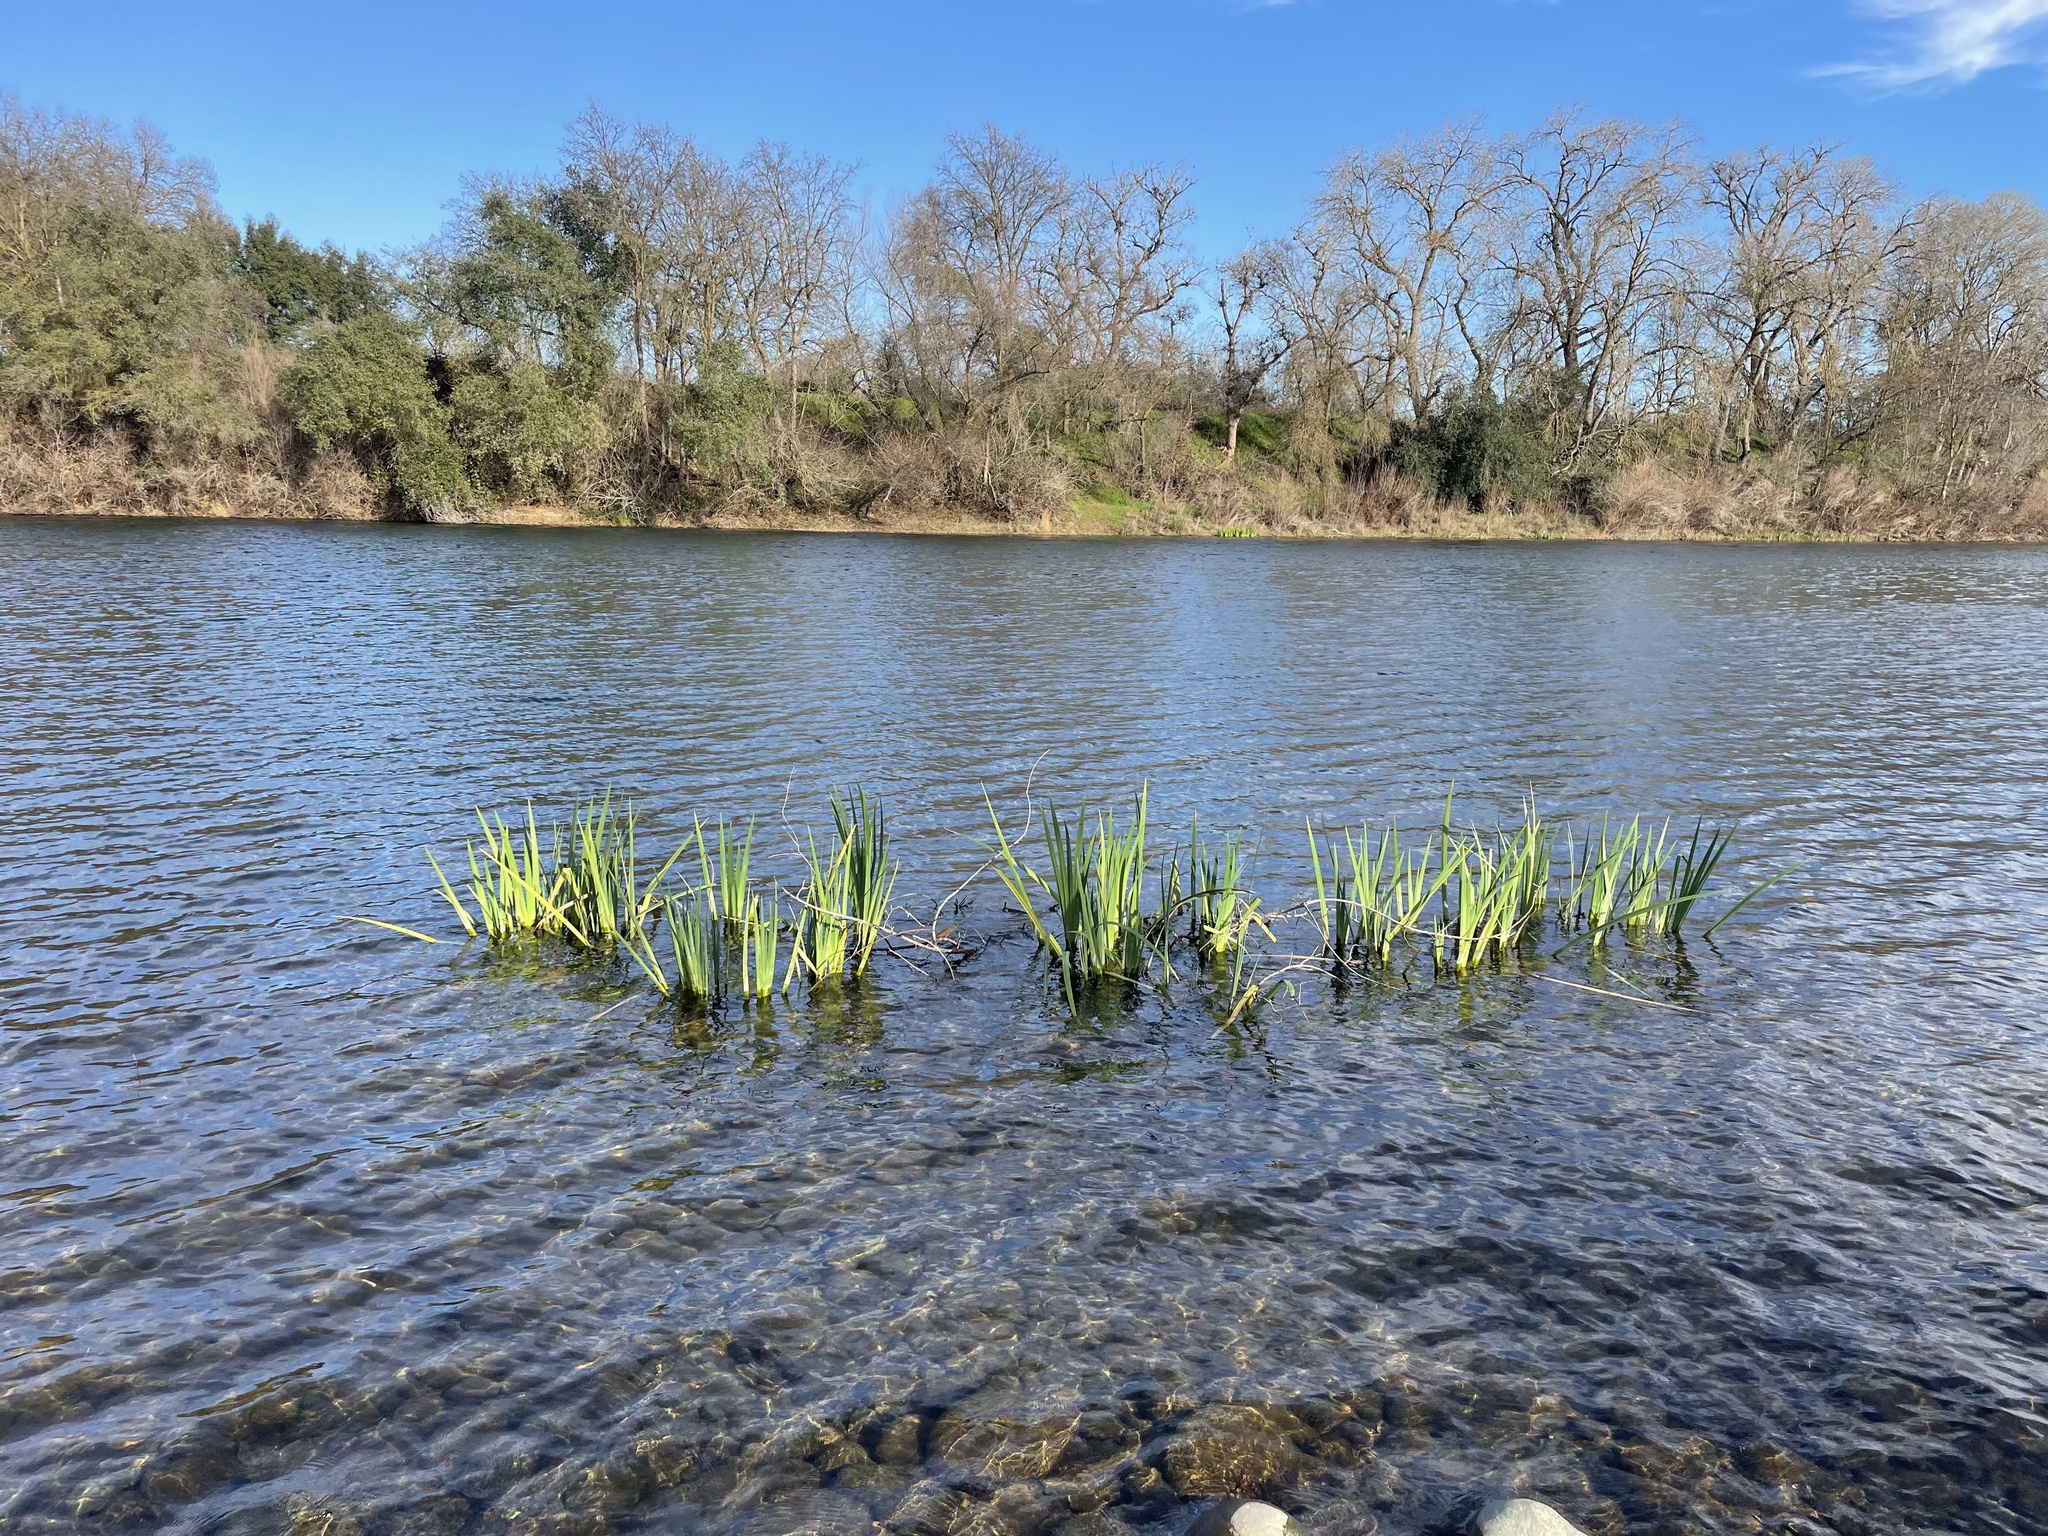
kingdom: Plantae
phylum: Tracheophyta
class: Liliopsida
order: Asparagales
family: Iridaceae
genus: Iris
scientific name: Iris pseudacorus
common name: Yellow flag
